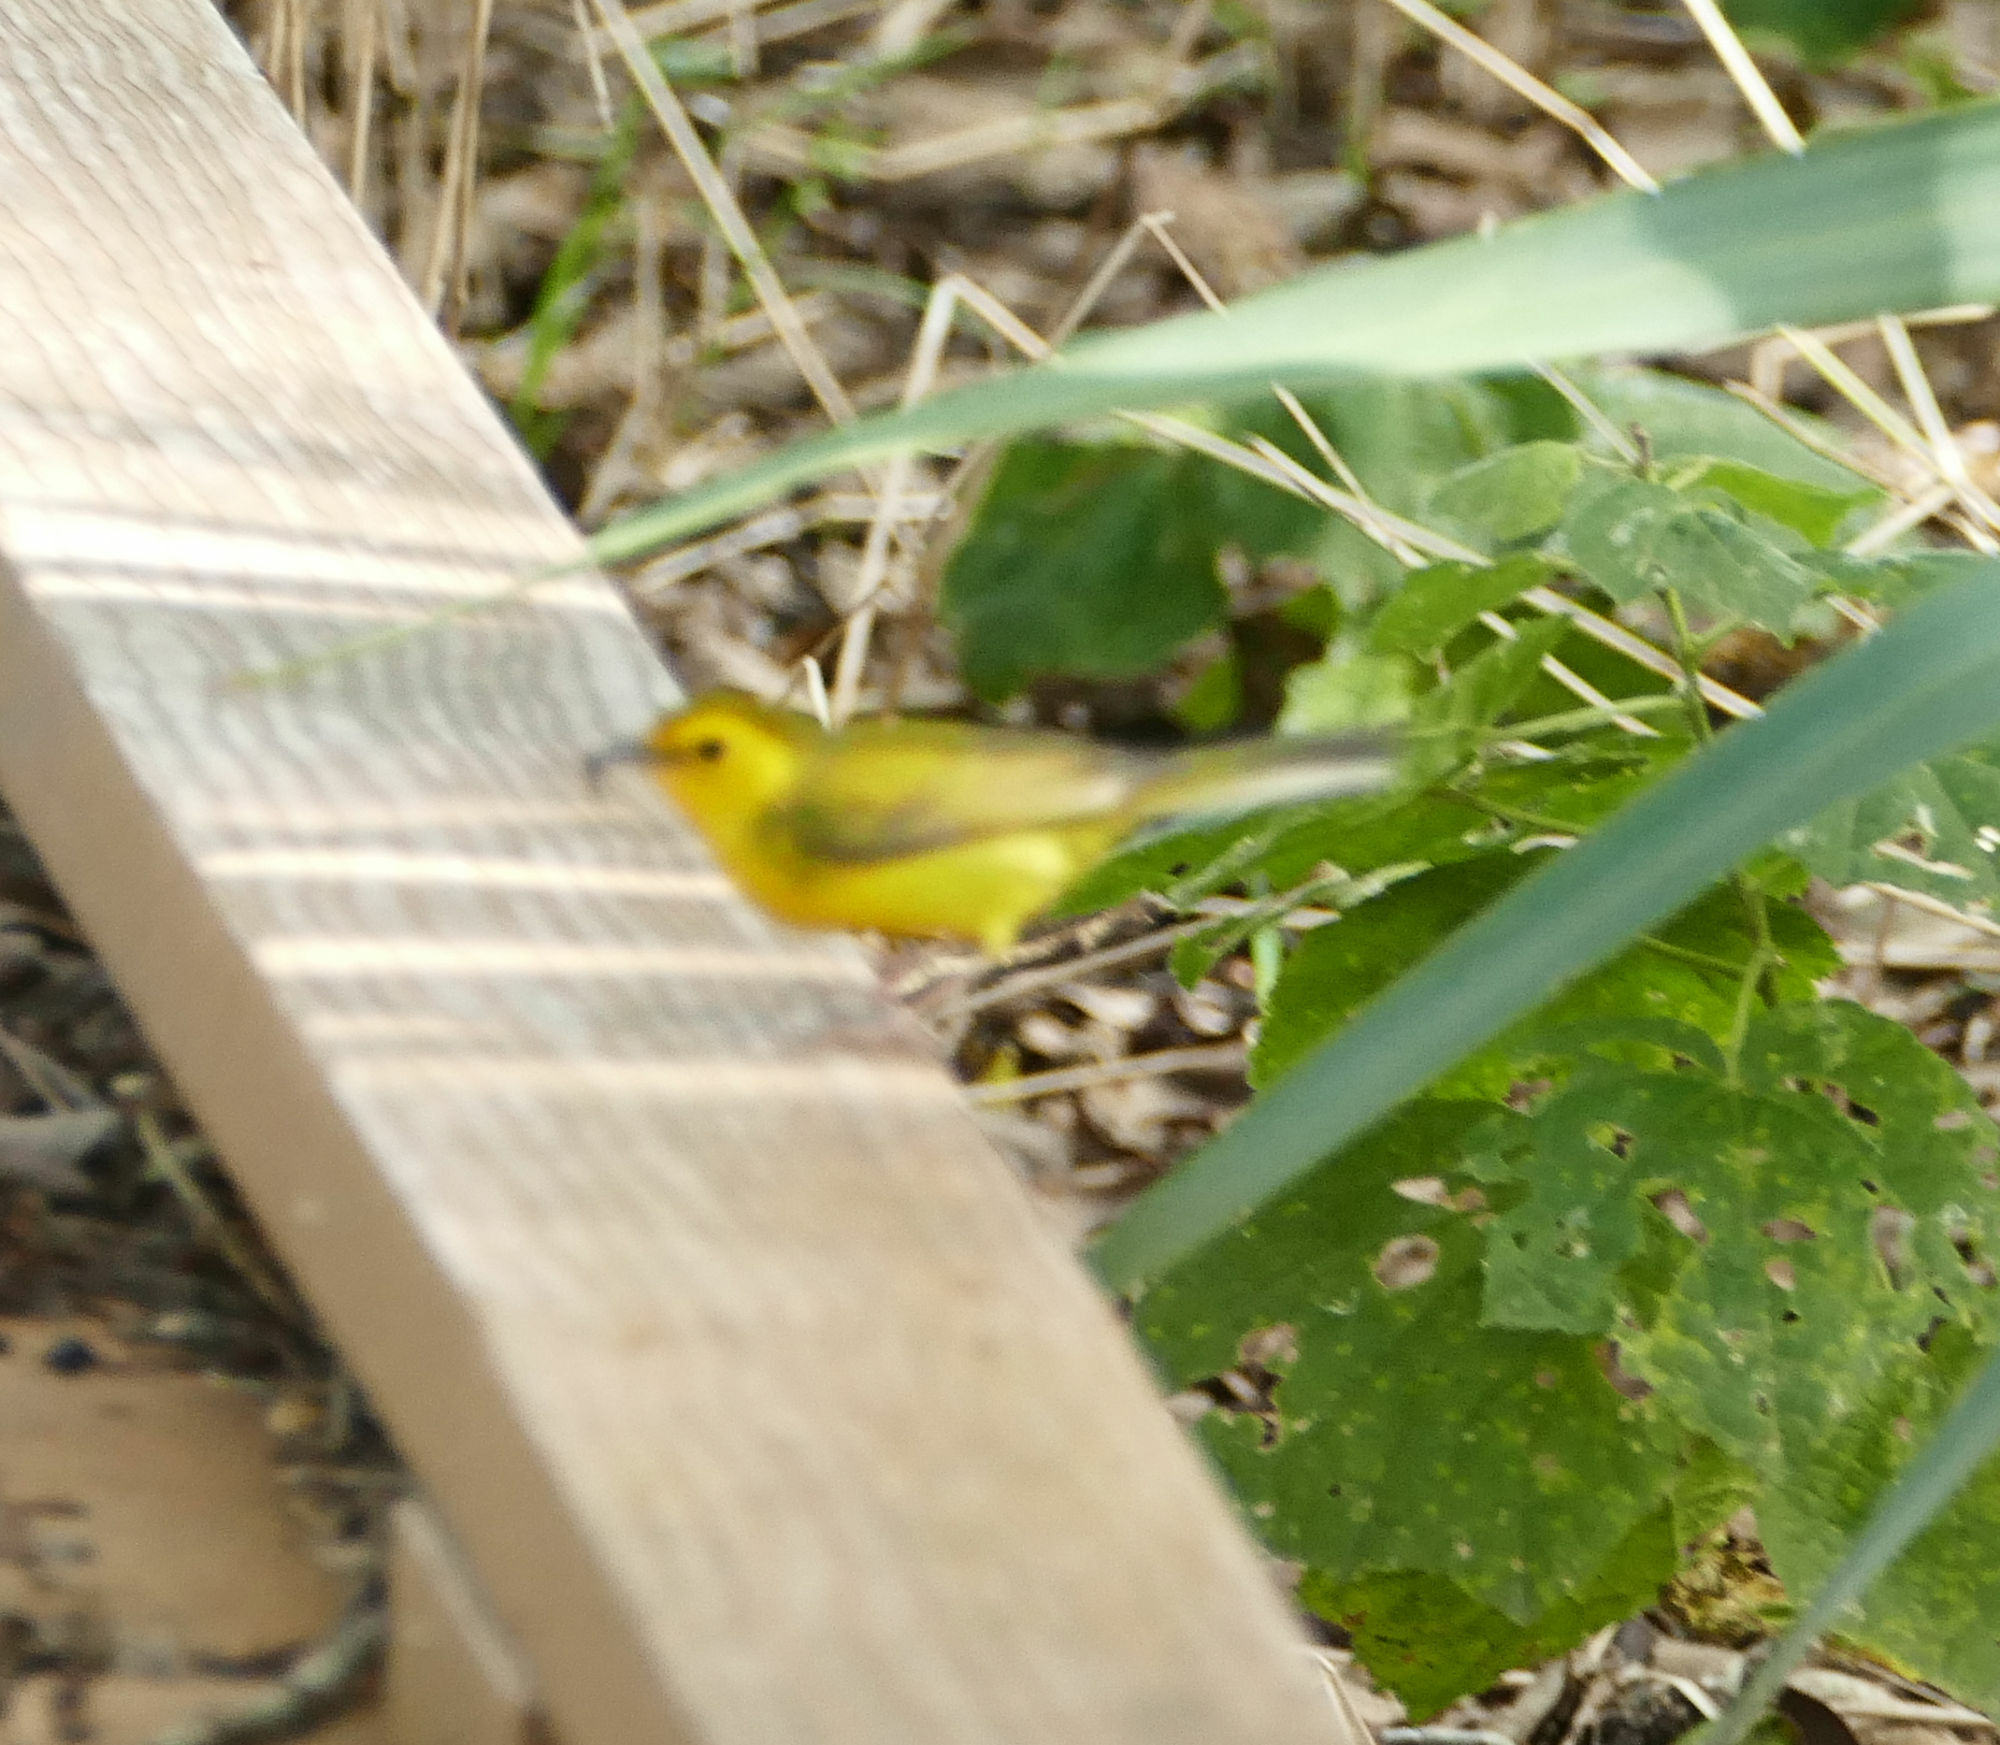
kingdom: Animalia
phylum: Chordata
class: Aves
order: Passeriformes
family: Parulidae
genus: Setophaga
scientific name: Setophaga citrina
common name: Hooded warbler
